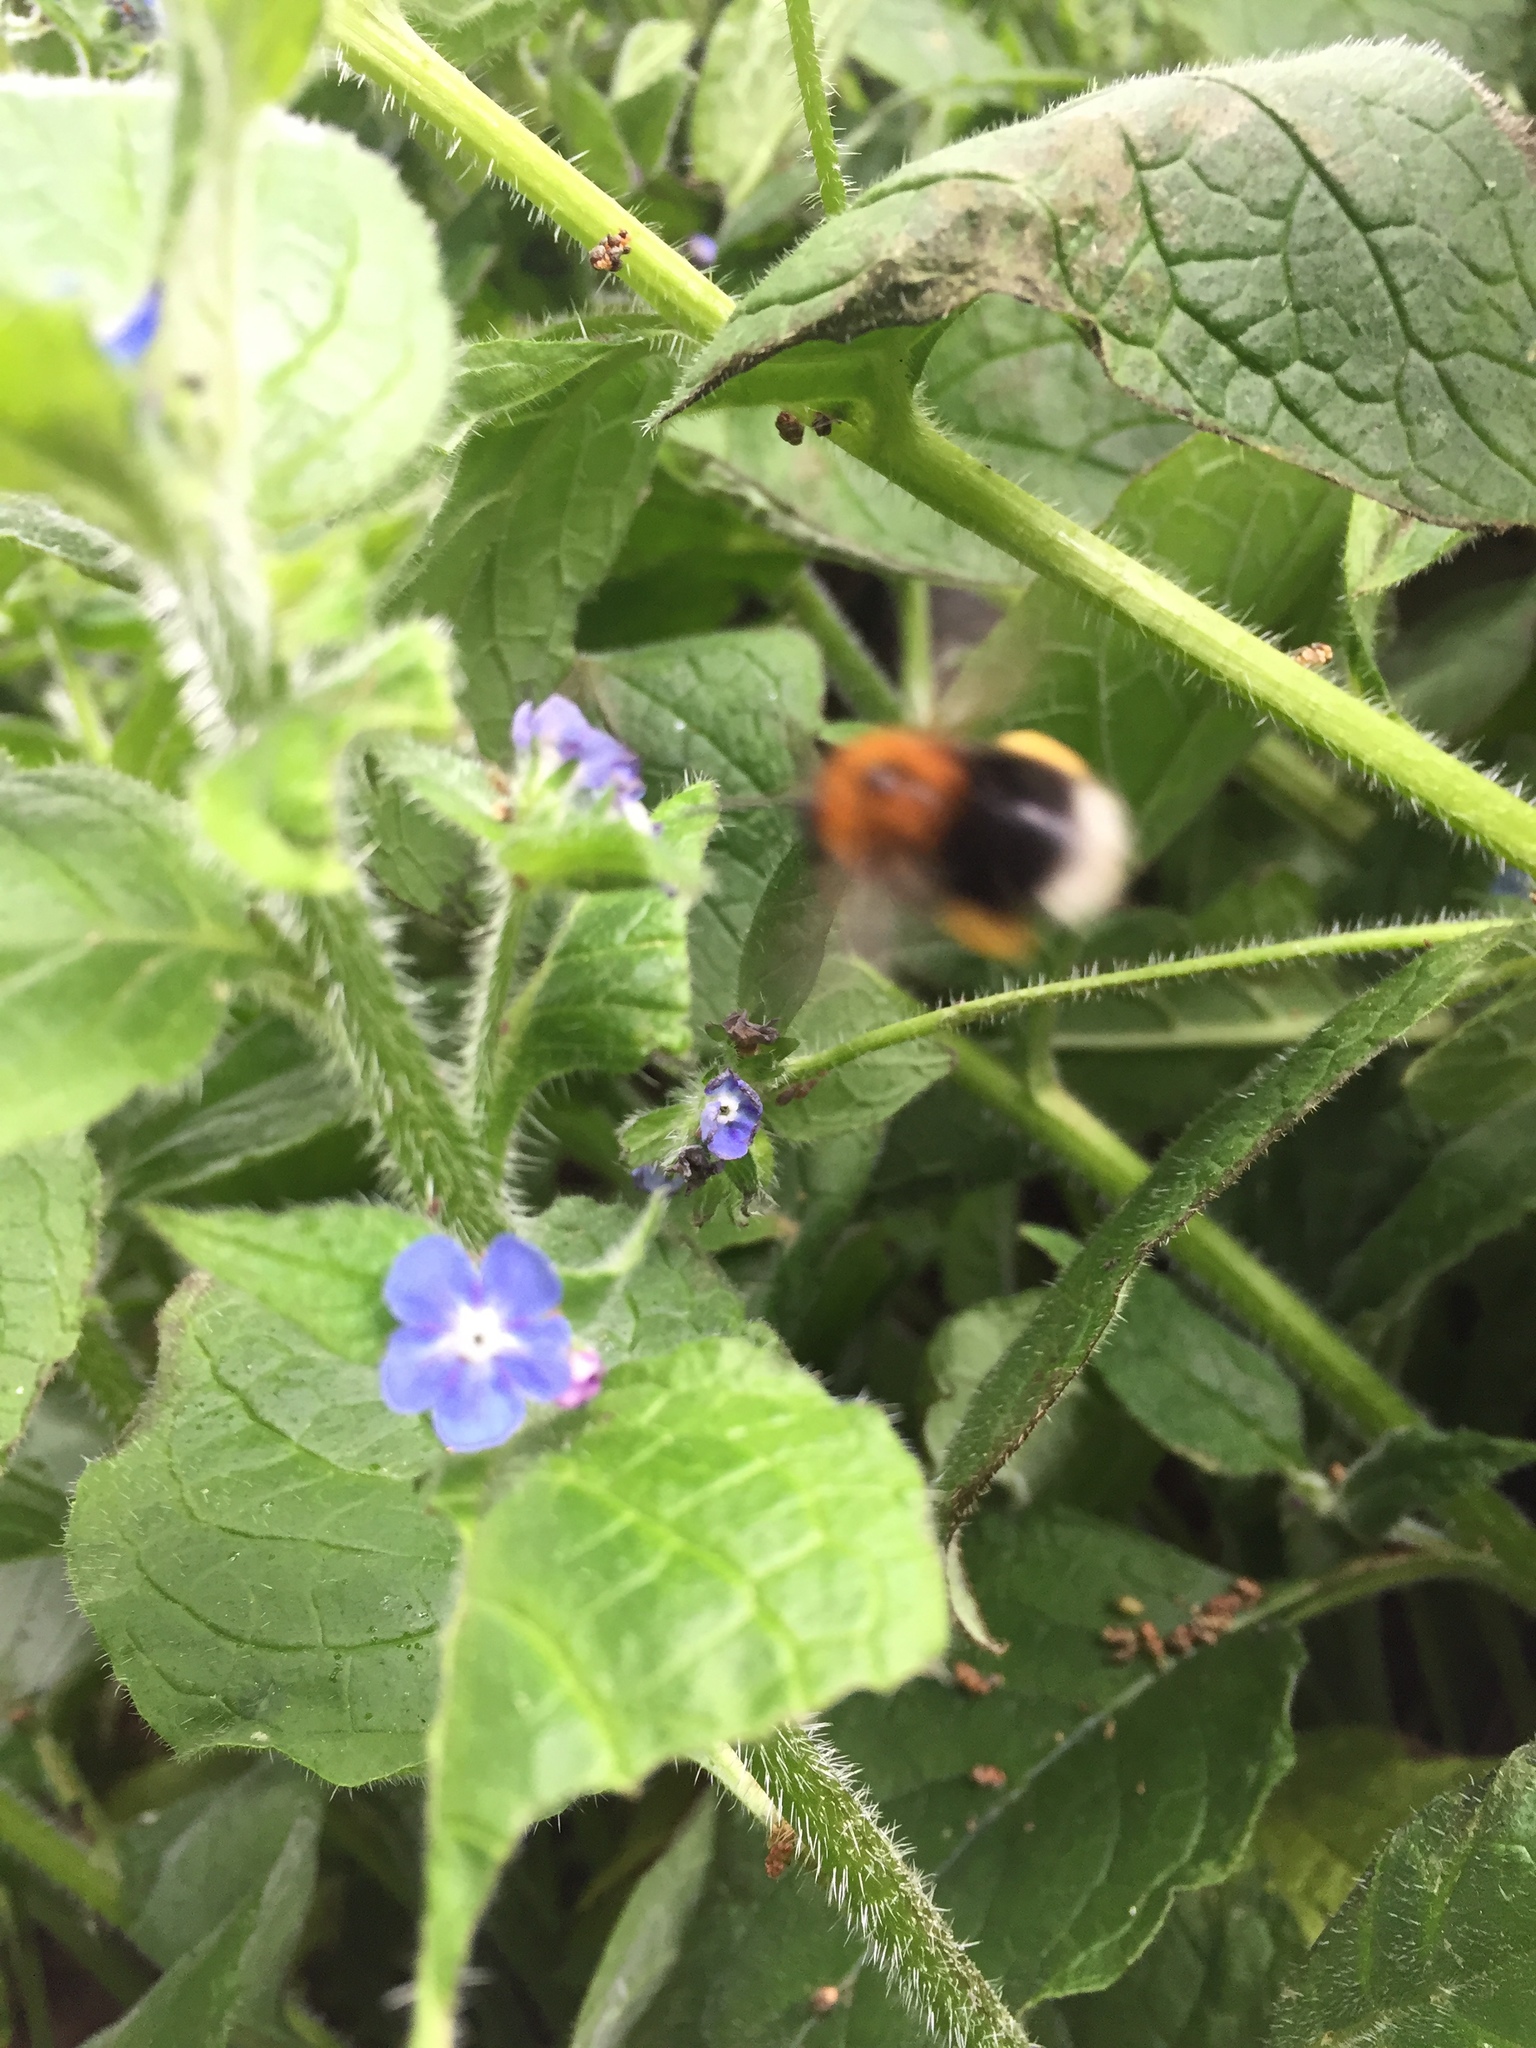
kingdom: Animalia
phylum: Arthropoda
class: Insecta
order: Hymenoptera
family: Apidae
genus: Bombus
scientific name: Bombus hypnorum
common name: New garden bumblebee
